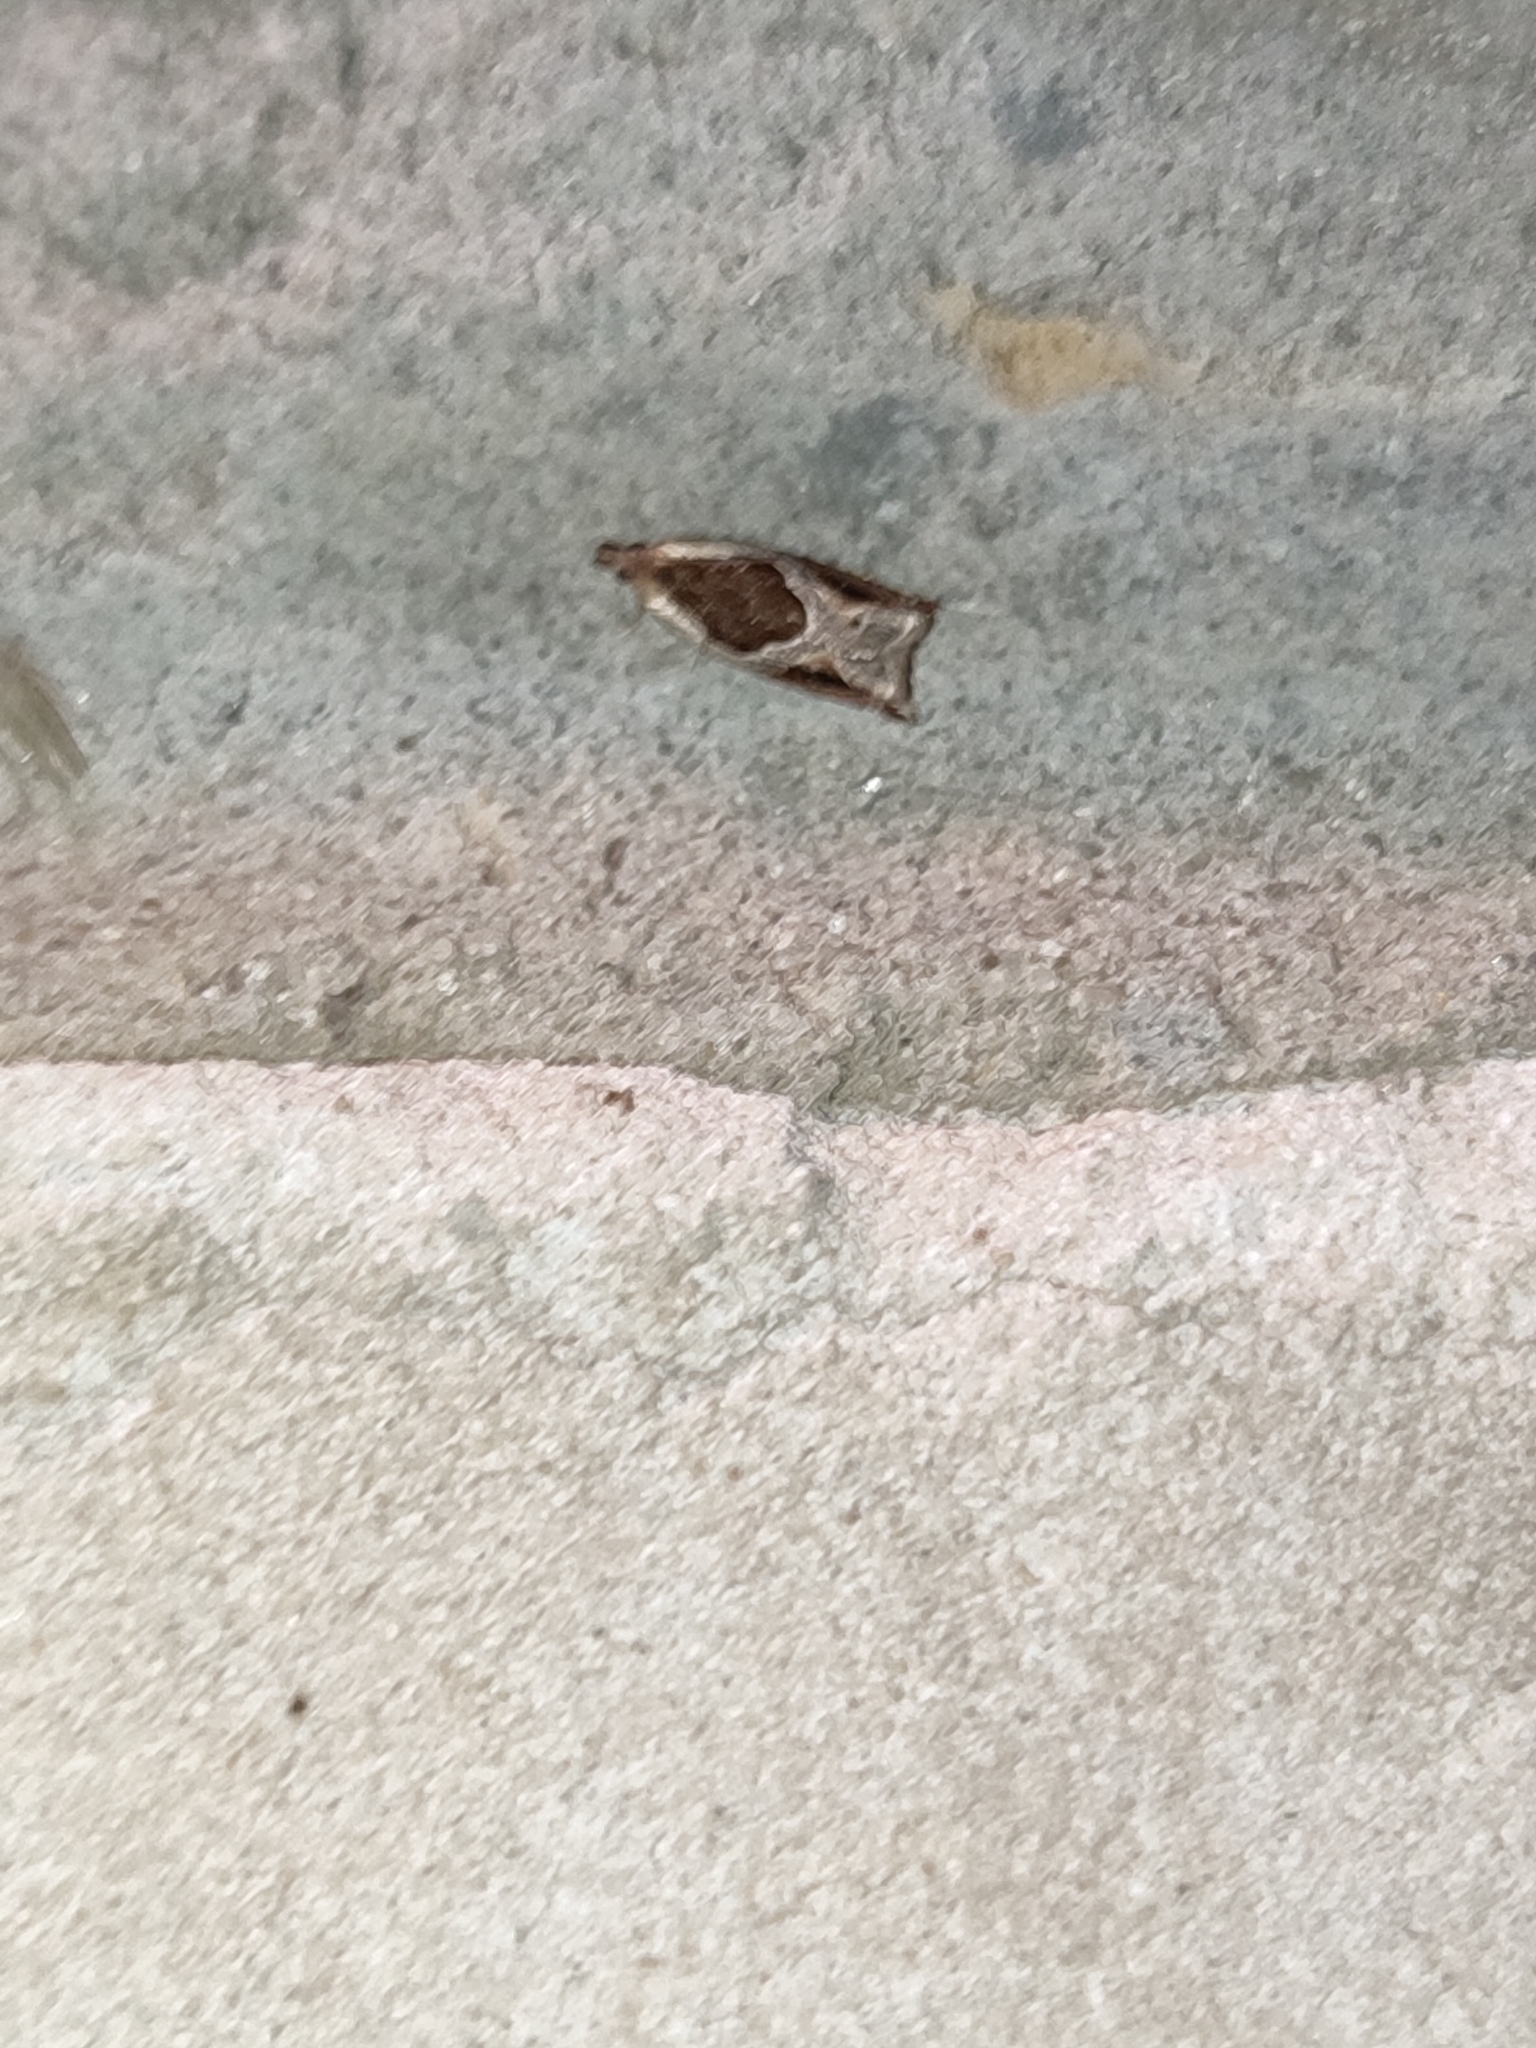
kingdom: Animalia
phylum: Arthropoda
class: Insecta
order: Lepidoptera
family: Tortricidae
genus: Ancylis
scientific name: Ancylis unculana
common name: Buckthorn roller
